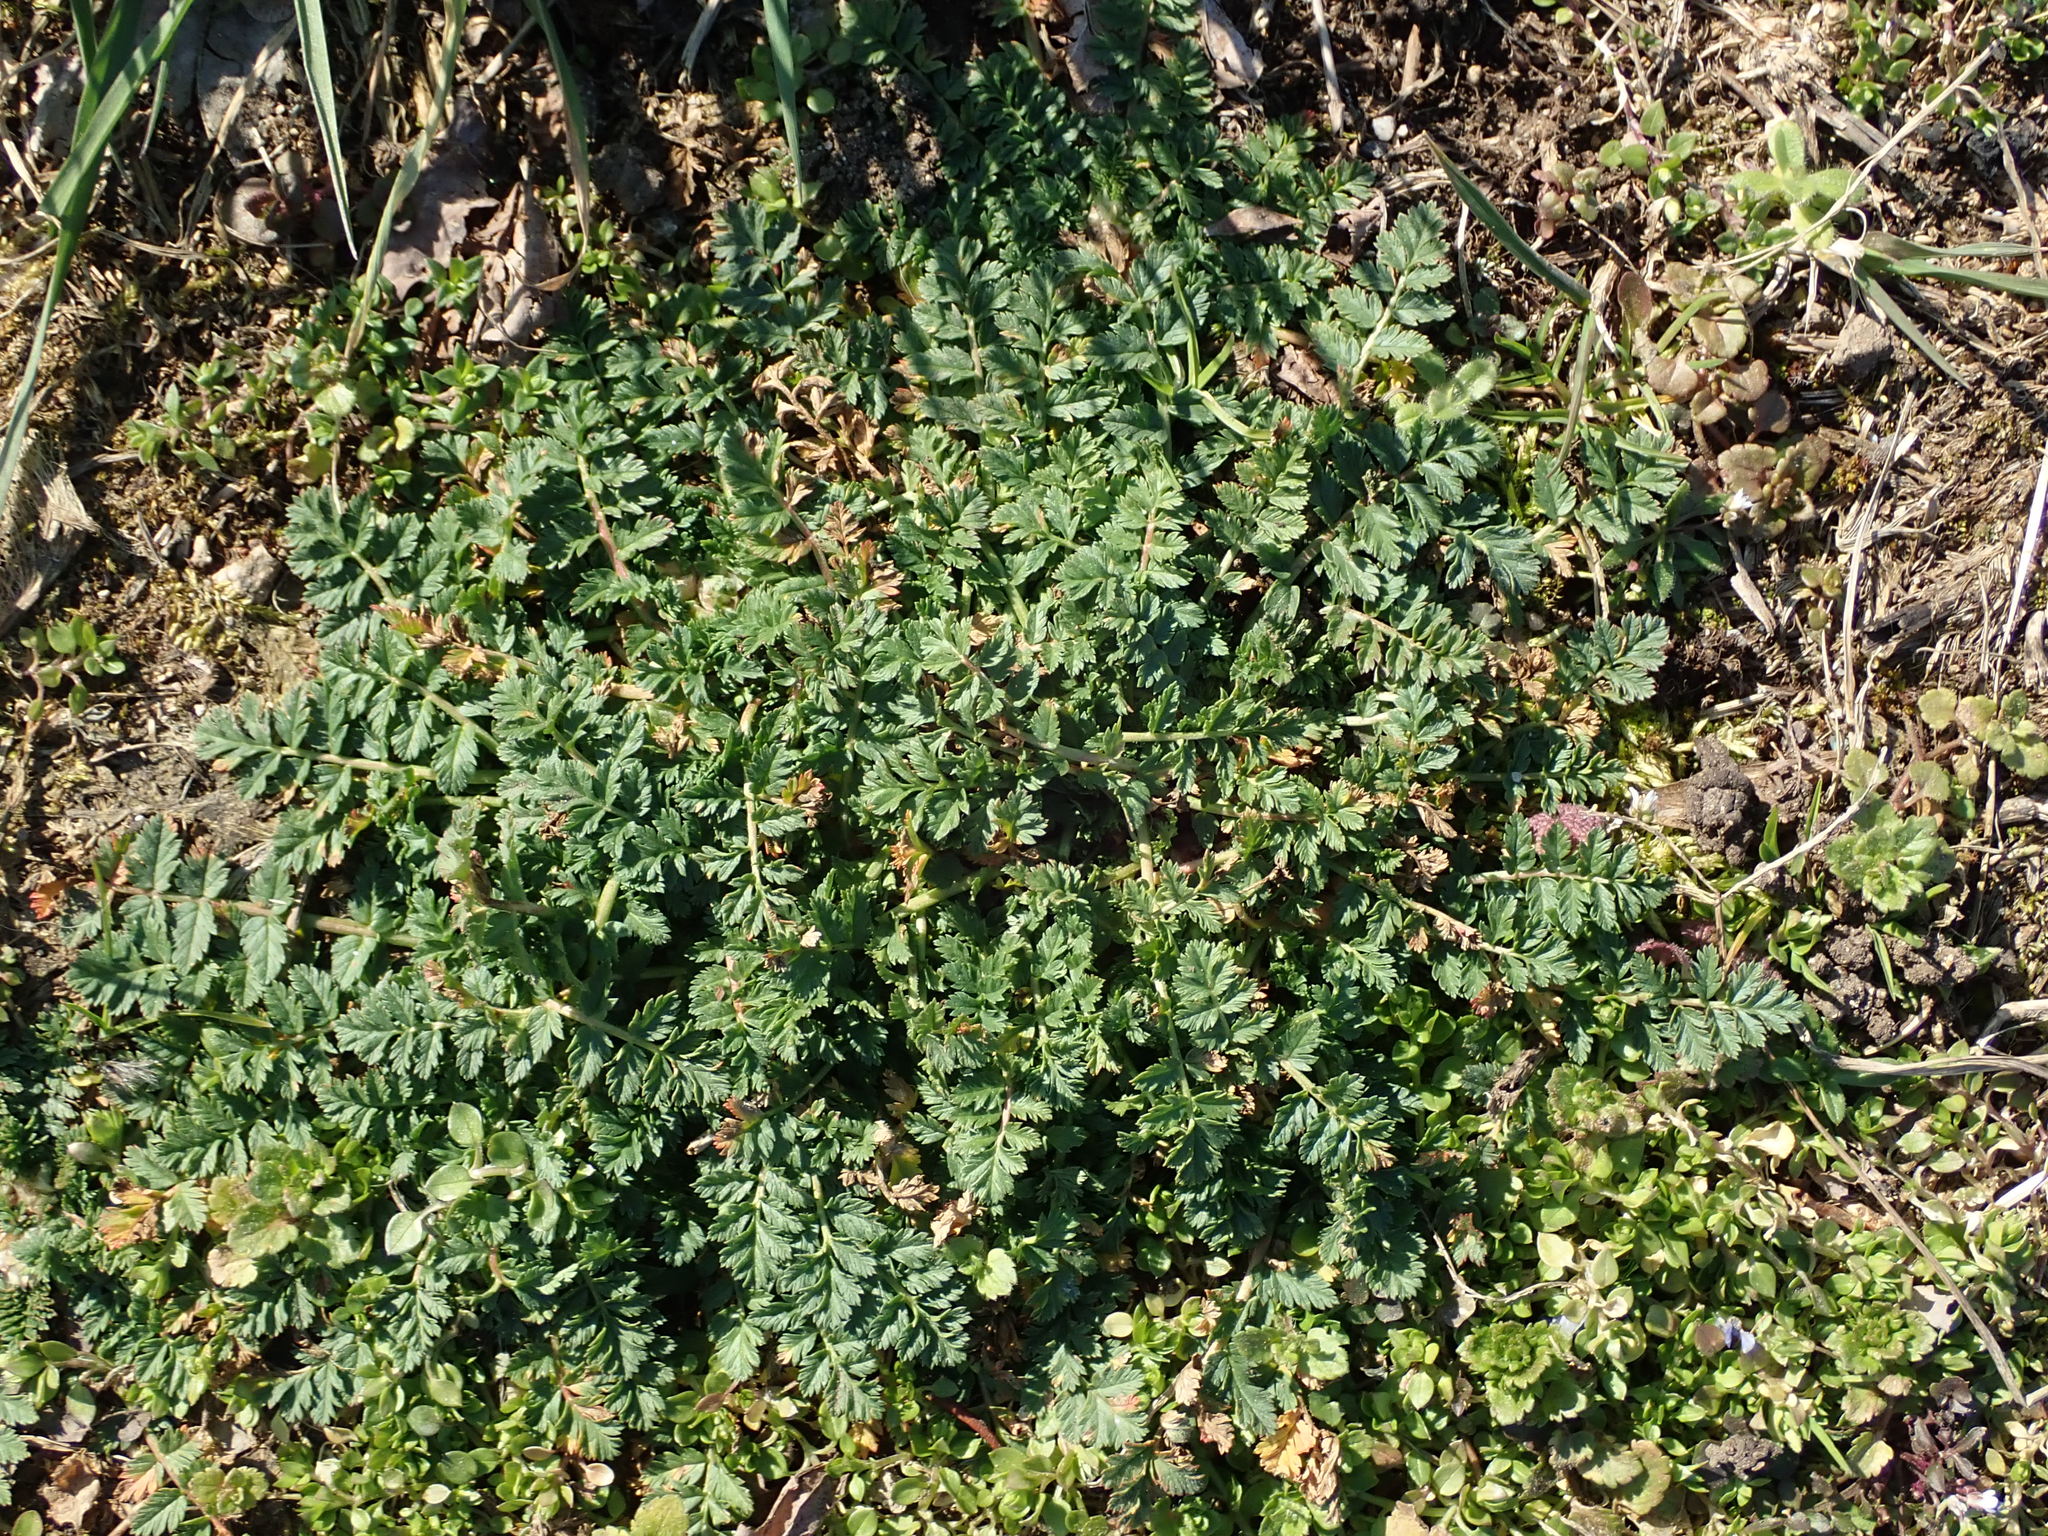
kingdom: Plantae
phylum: Tracheophyta
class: Magnoliopsida
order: Geraniales
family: Geraniaceae
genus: Erodium
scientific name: Erodium cicutarium
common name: Common stork's-bill
